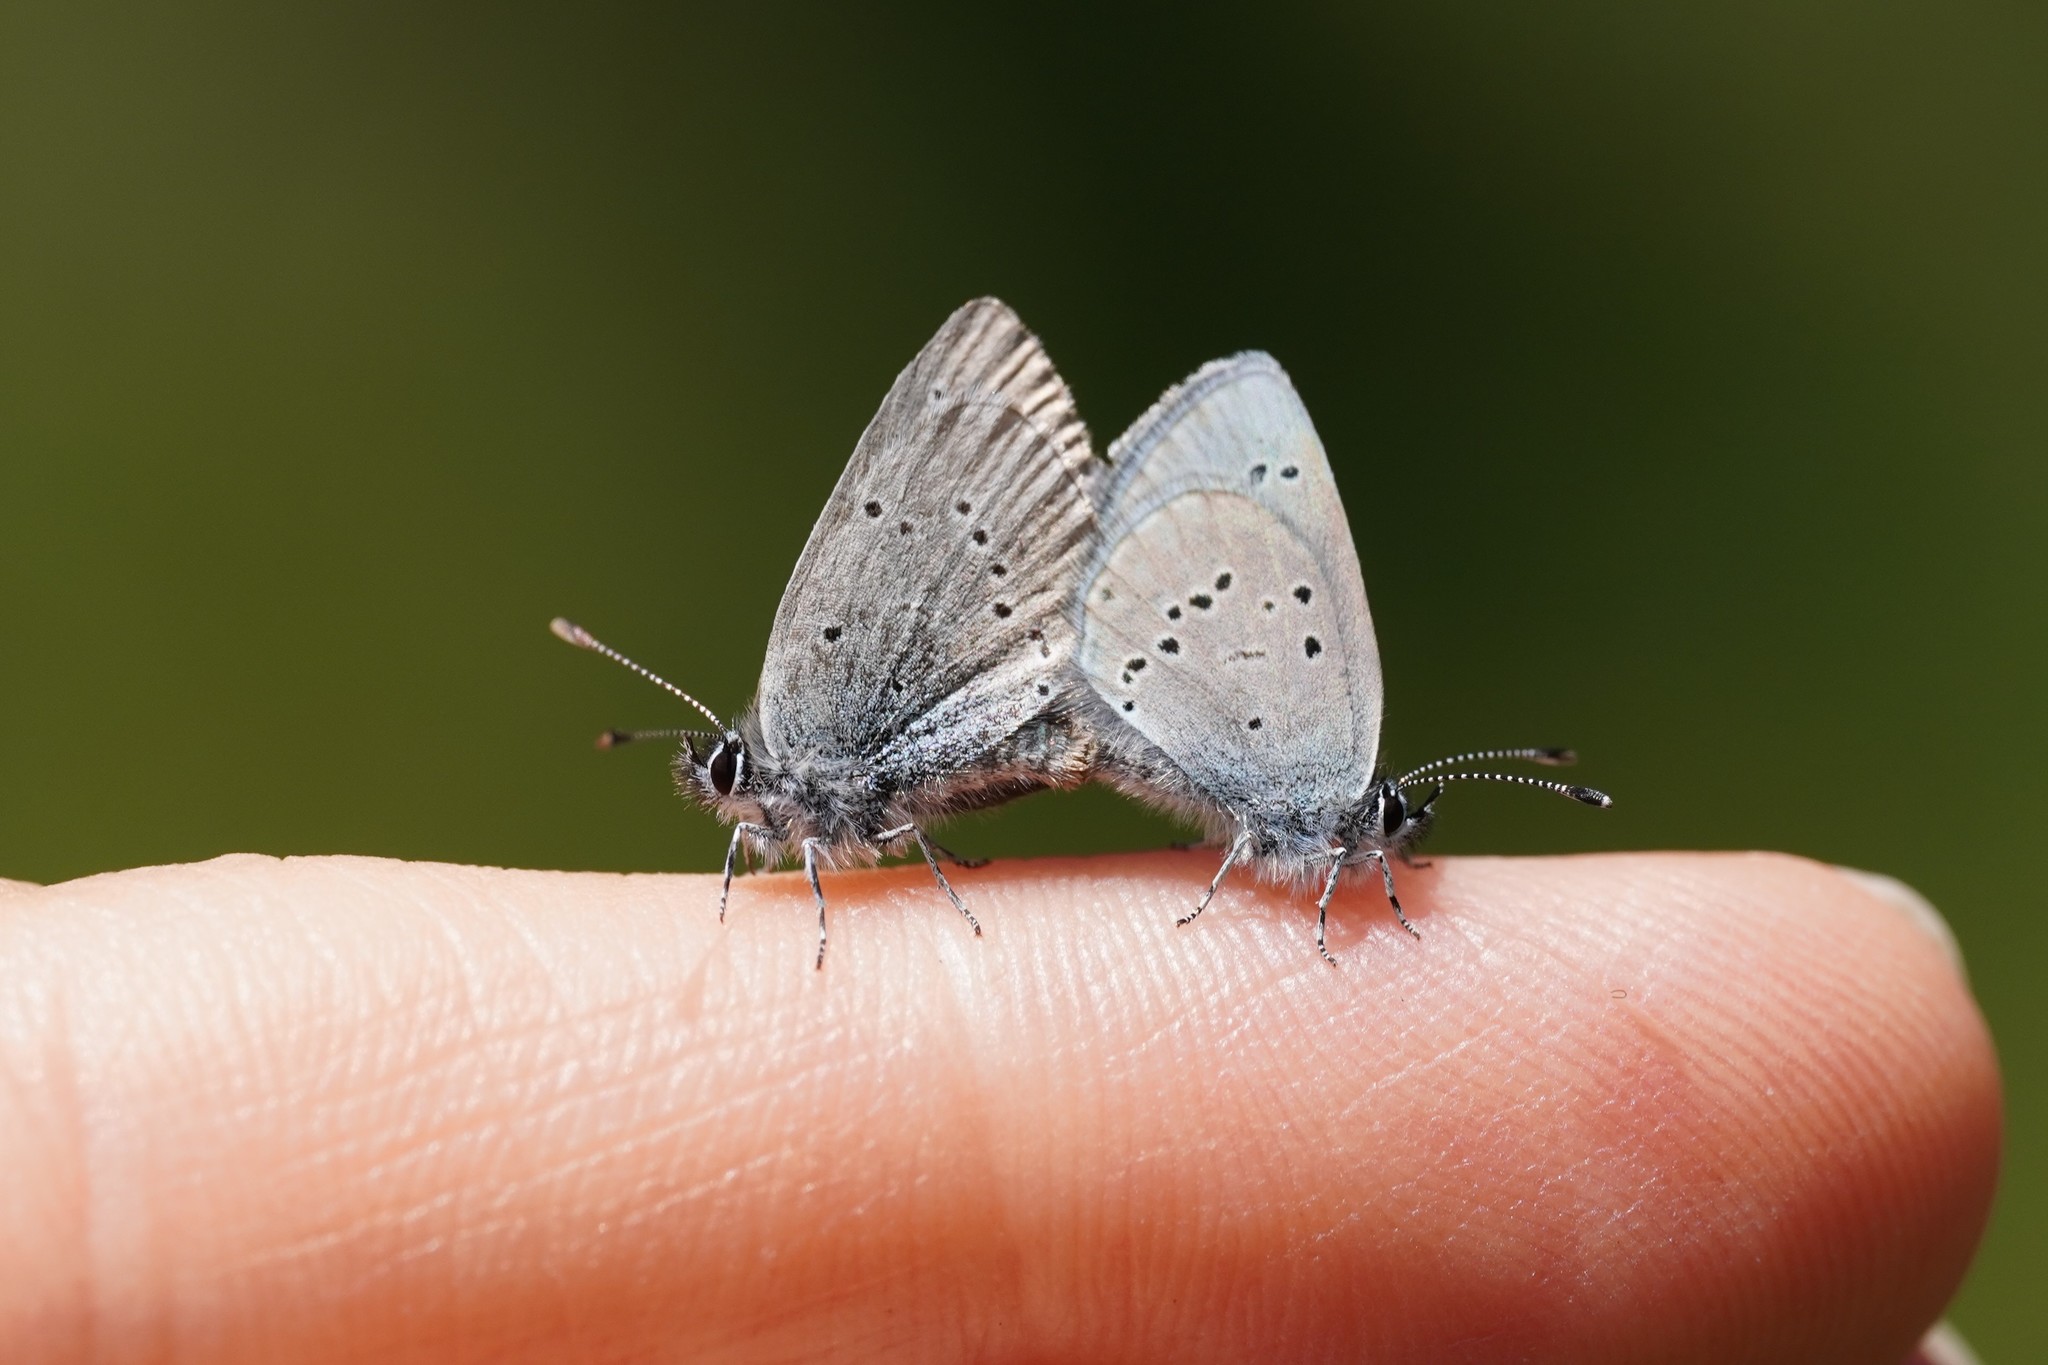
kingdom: Animalia
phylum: Arthropoda
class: Insecta
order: Lepidoptera
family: Lycaenidae
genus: Cupido
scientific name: Cupido minimus
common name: Small blue
